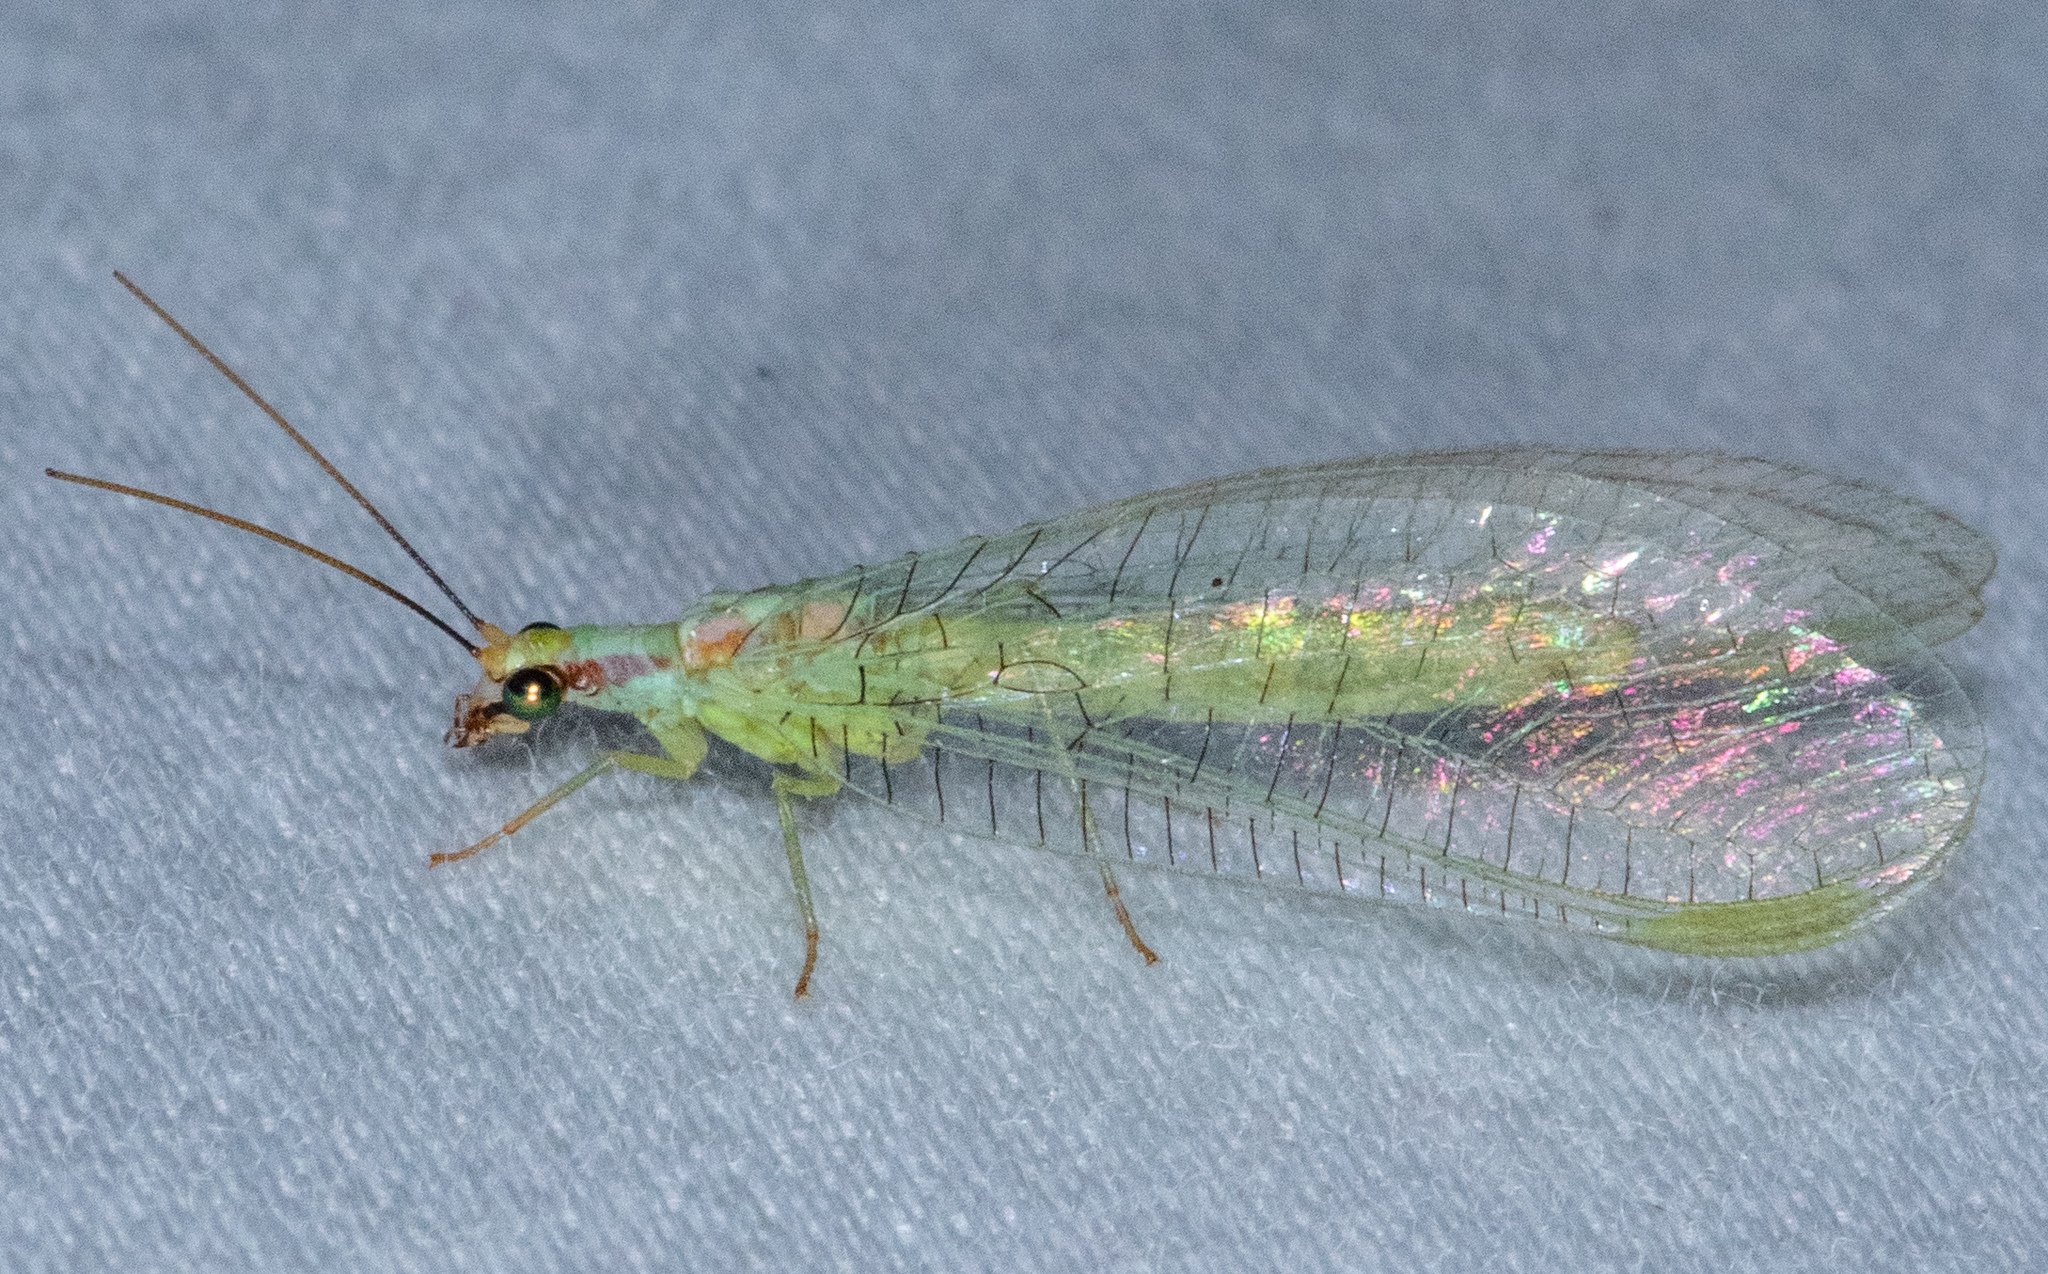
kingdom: Animalia
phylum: Arthropoda
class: Insecta
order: Neuroptera
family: Chrysopidae
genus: Chrysopa
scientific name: Chrysopa coloradensis
